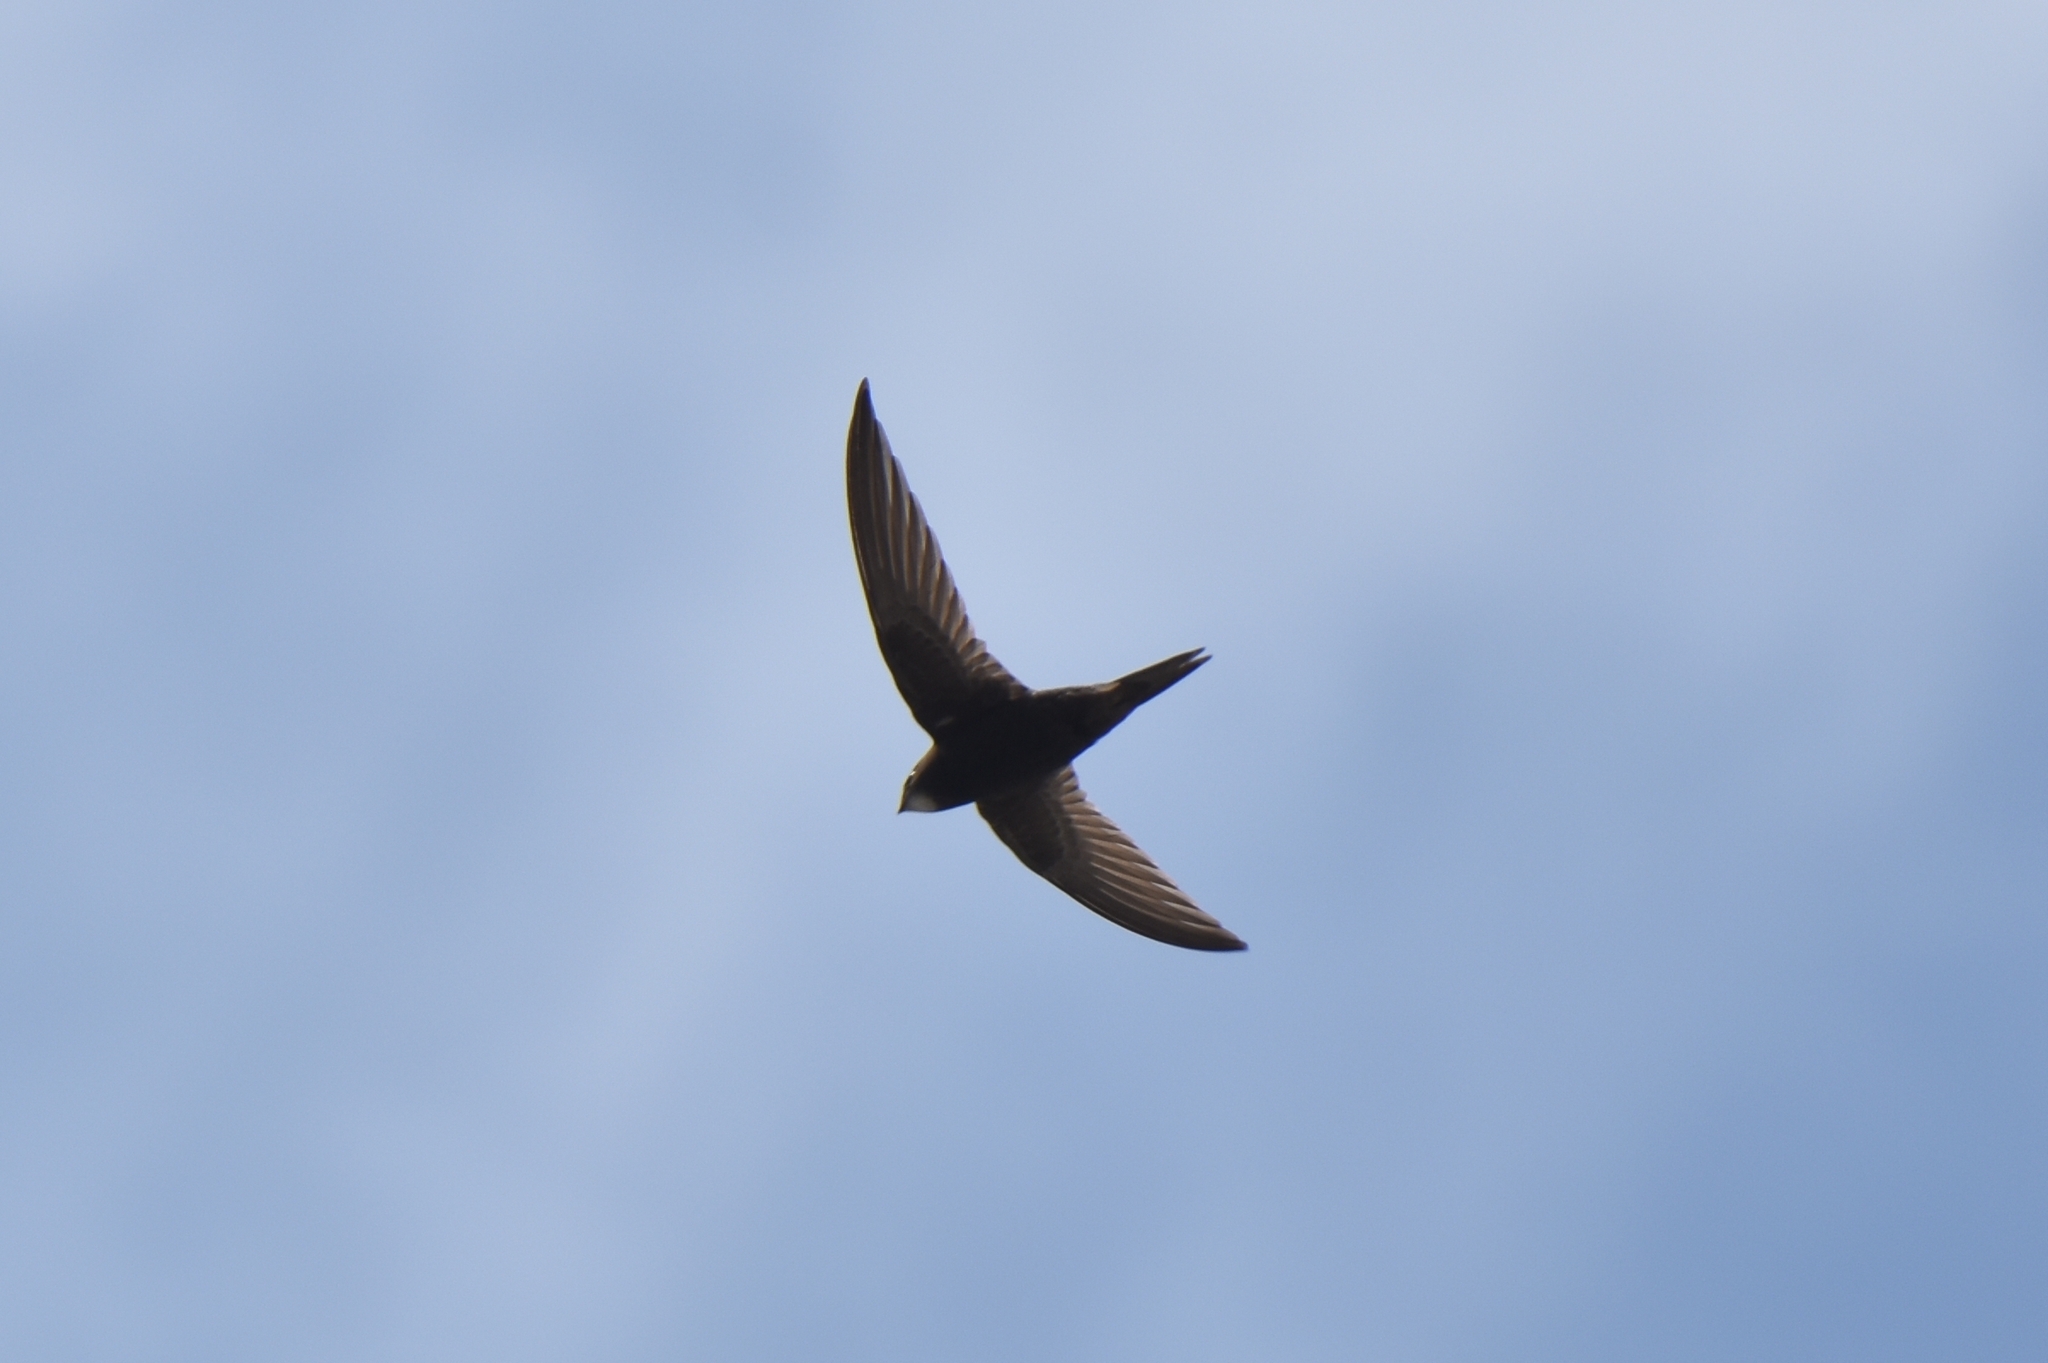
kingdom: Animalia
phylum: Chordata
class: Aves
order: Apodiformes
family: Apodidae
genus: Apus
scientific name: Apus apus
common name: Common swift
